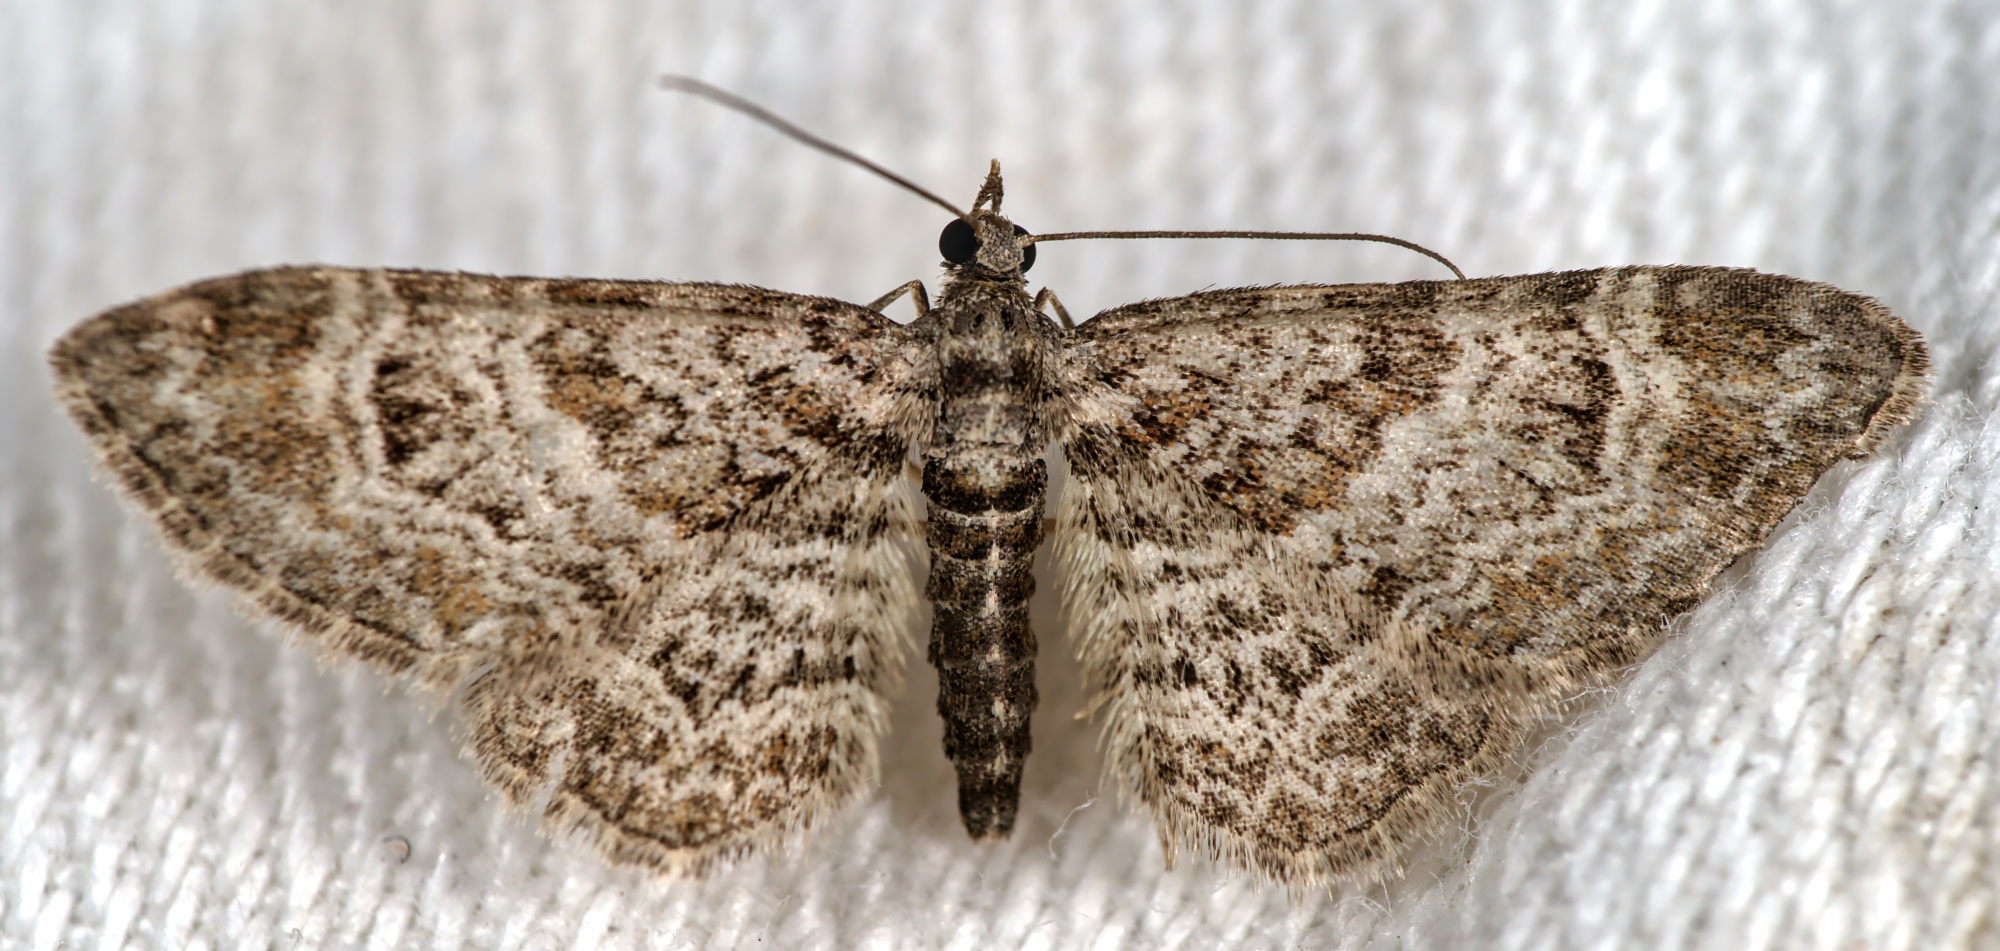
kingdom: Animalia
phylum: Arthropoda
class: Insecta
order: Lepidoptera
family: Geometridae
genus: Gymnoscelis
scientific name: Gymnoscelis rufifasciata
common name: Double-striped pug
